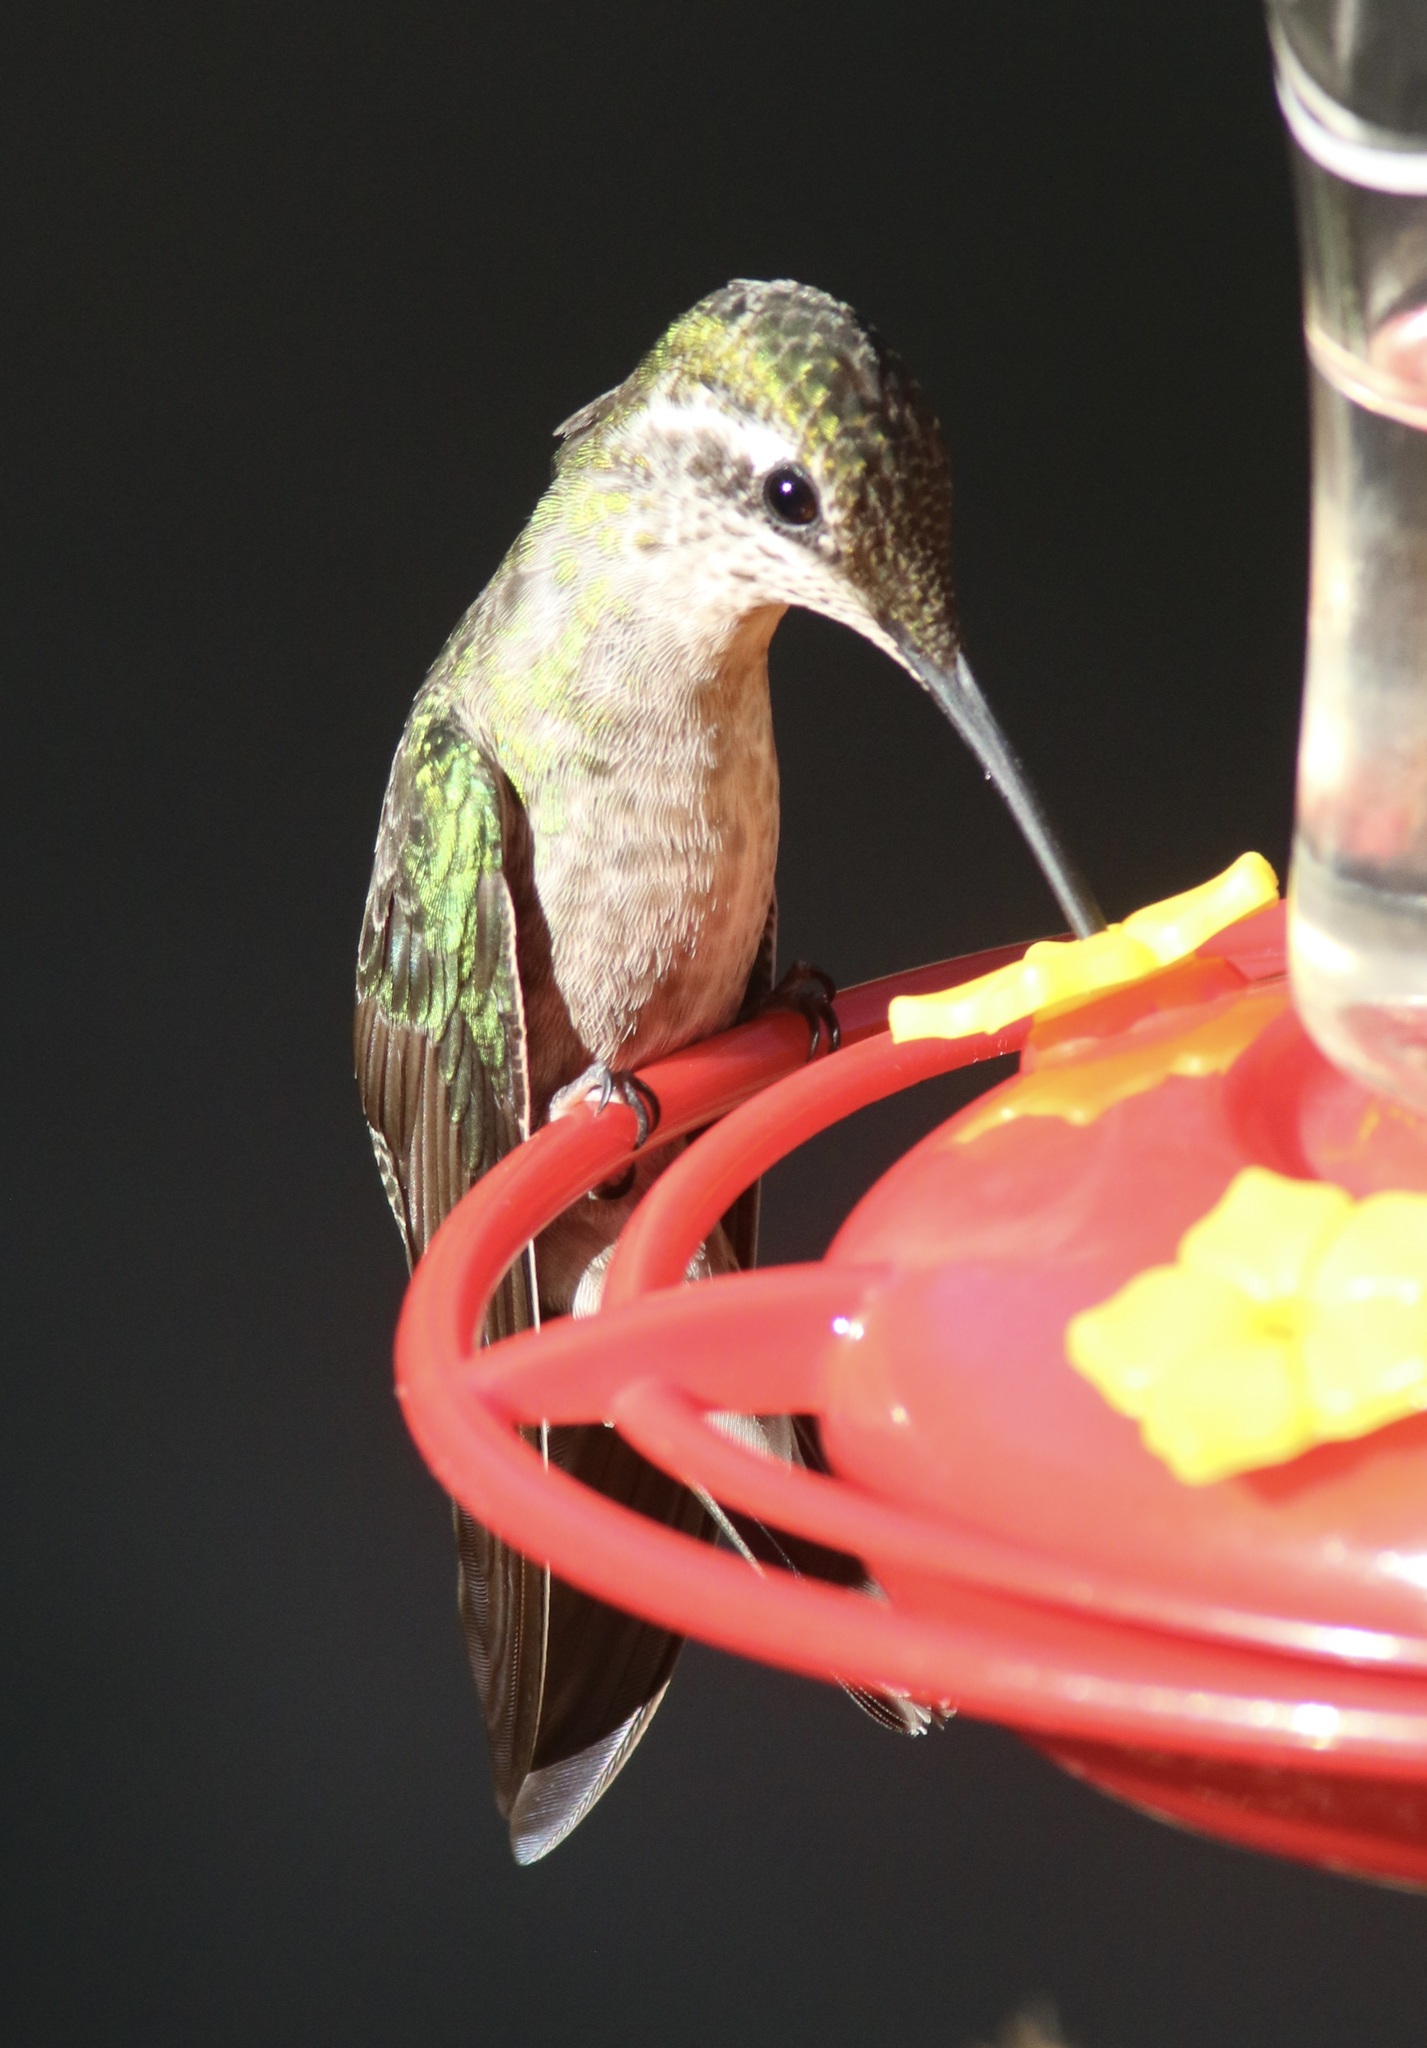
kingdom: Animalia
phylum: Chordata
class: Aves
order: Apodiformes
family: Trochilidae
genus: Eugenes
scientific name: Eugenes fulgens
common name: Magnificent hummingbird
